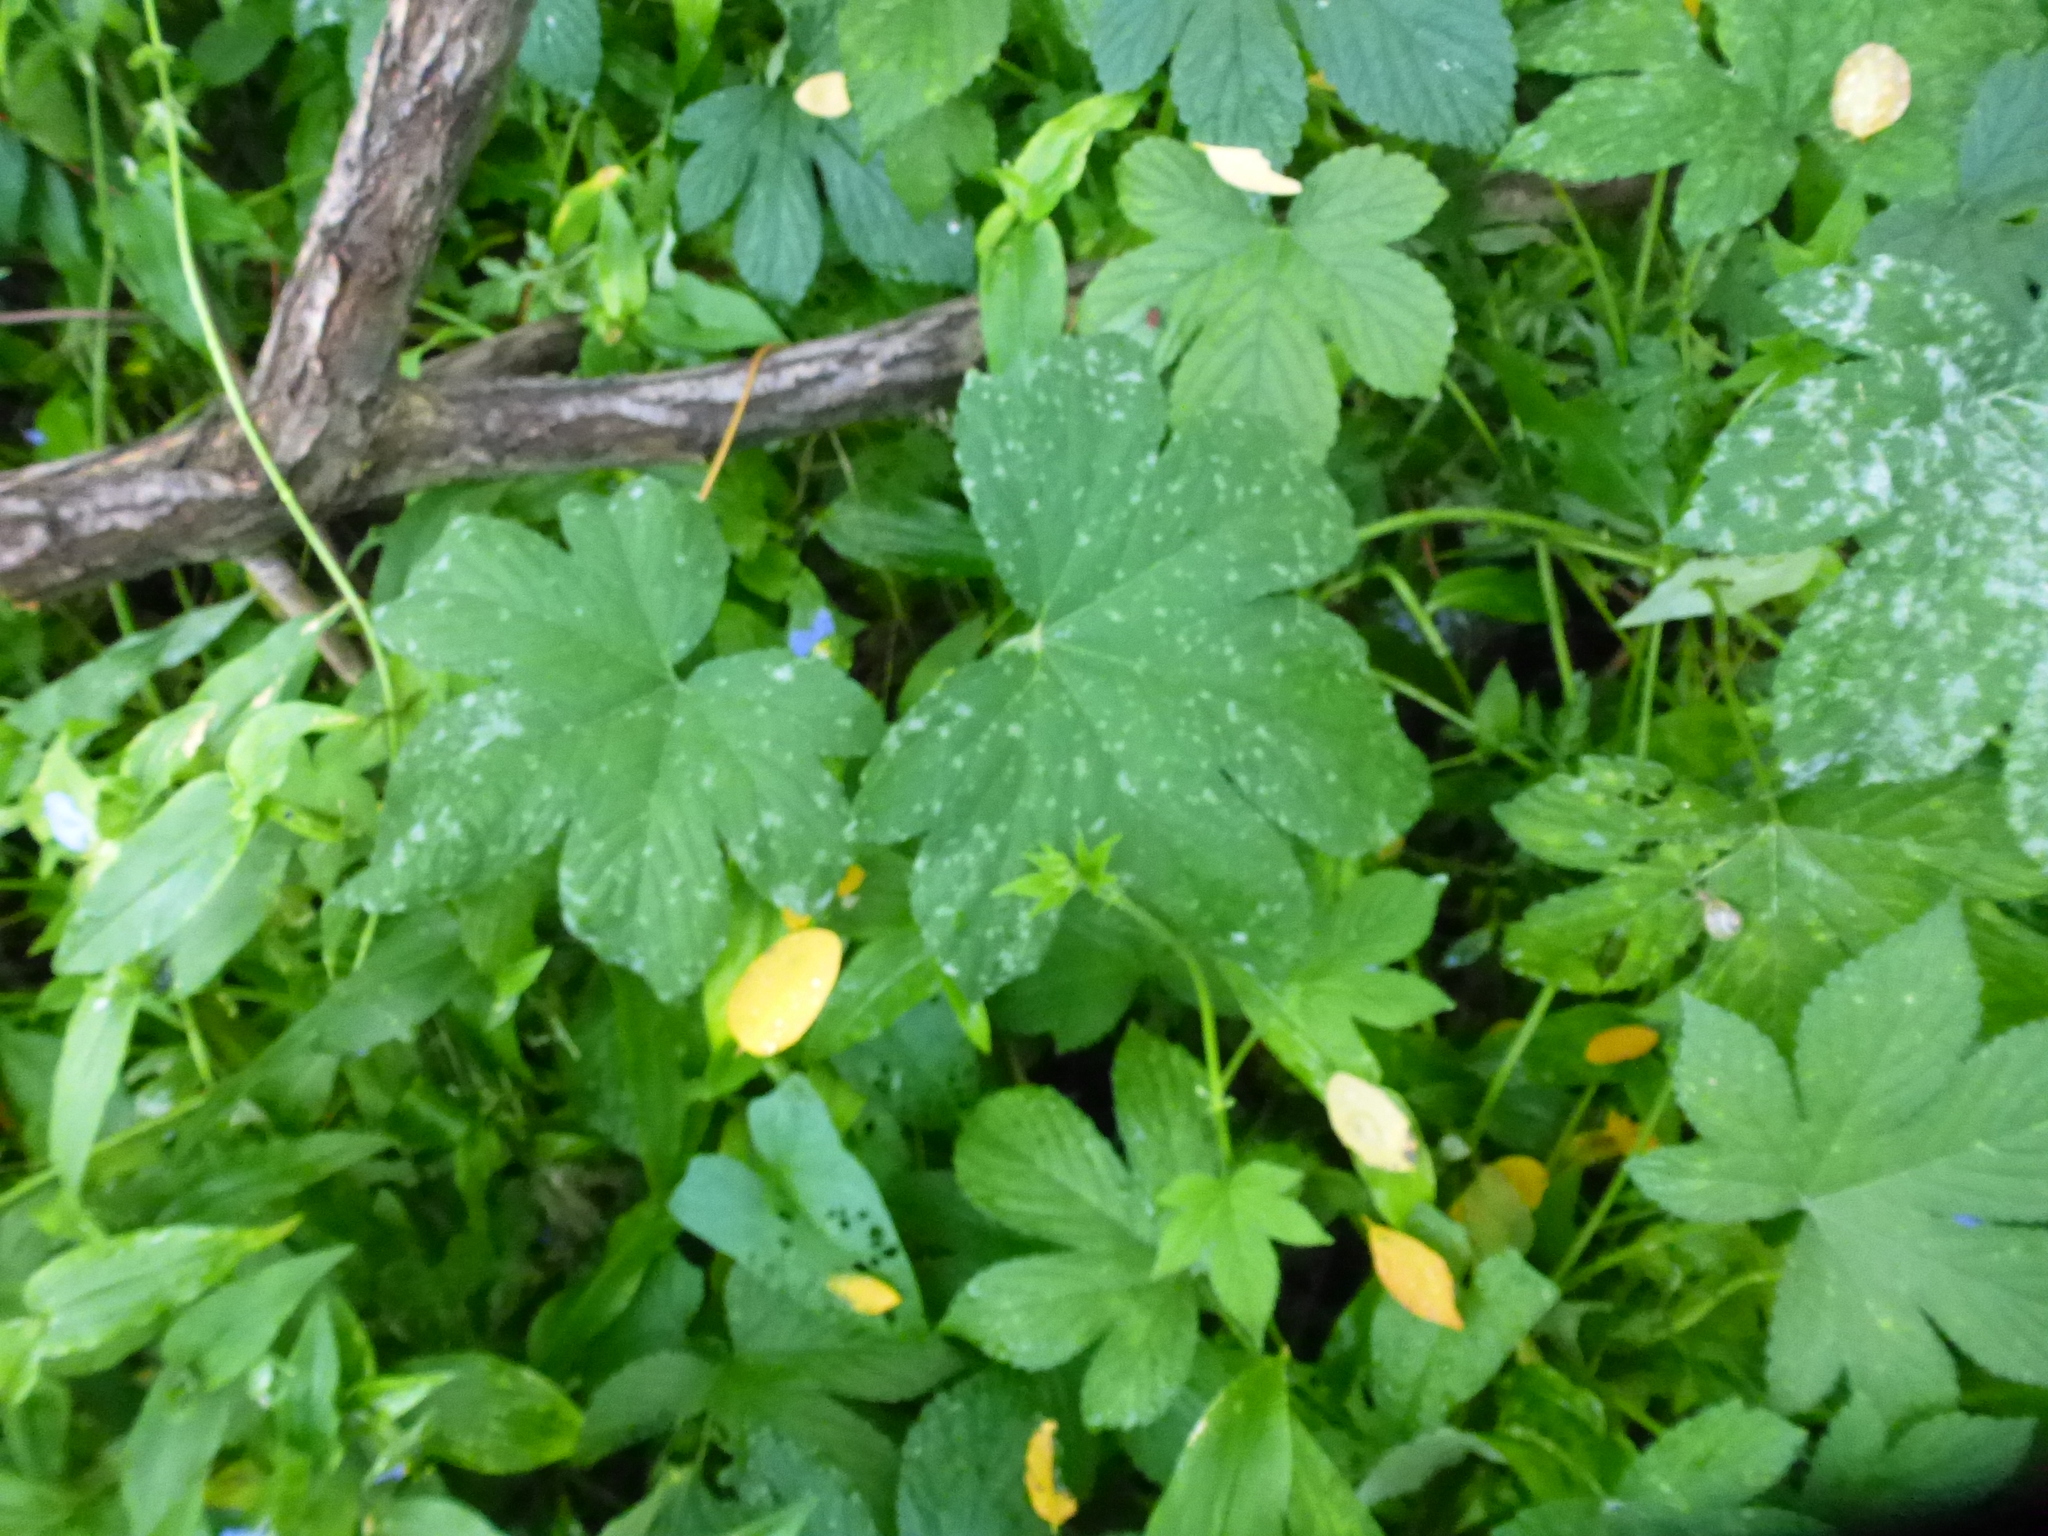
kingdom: Plantae
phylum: Tracheophyta
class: Magnoliopsida
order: Rosales
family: Cannabaceae
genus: Humulus
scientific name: Humulus scandens
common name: Japanese hop
